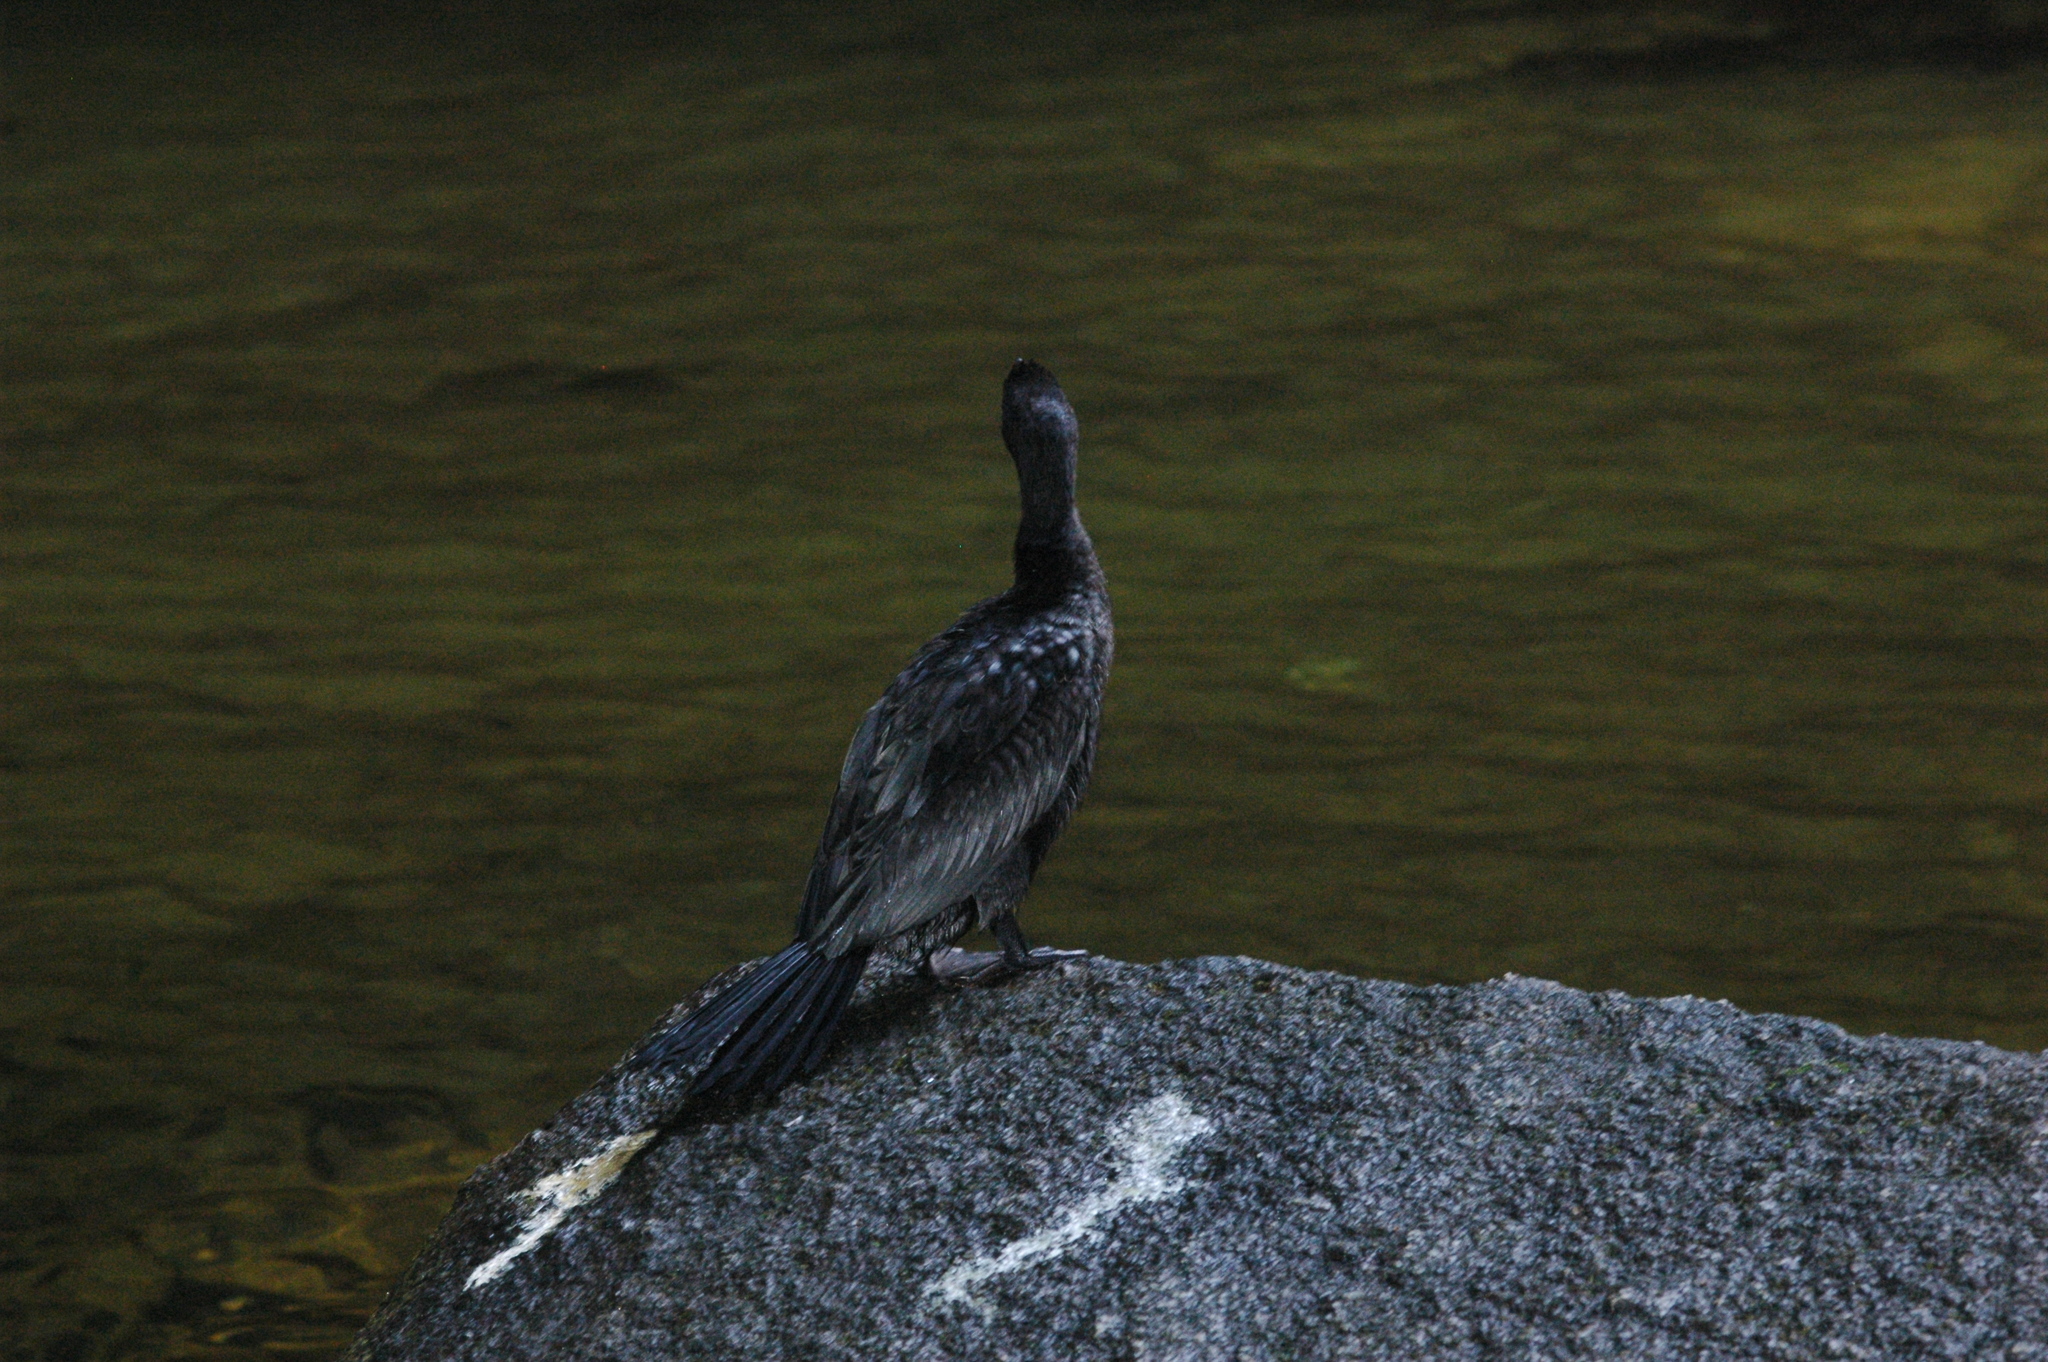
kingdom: Animalia
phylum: Chordata
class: Aves
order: Suliformes
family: Phalacrocoracidae
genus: Microcarbo
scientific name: Microcarbo niger
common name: Little cormorant
